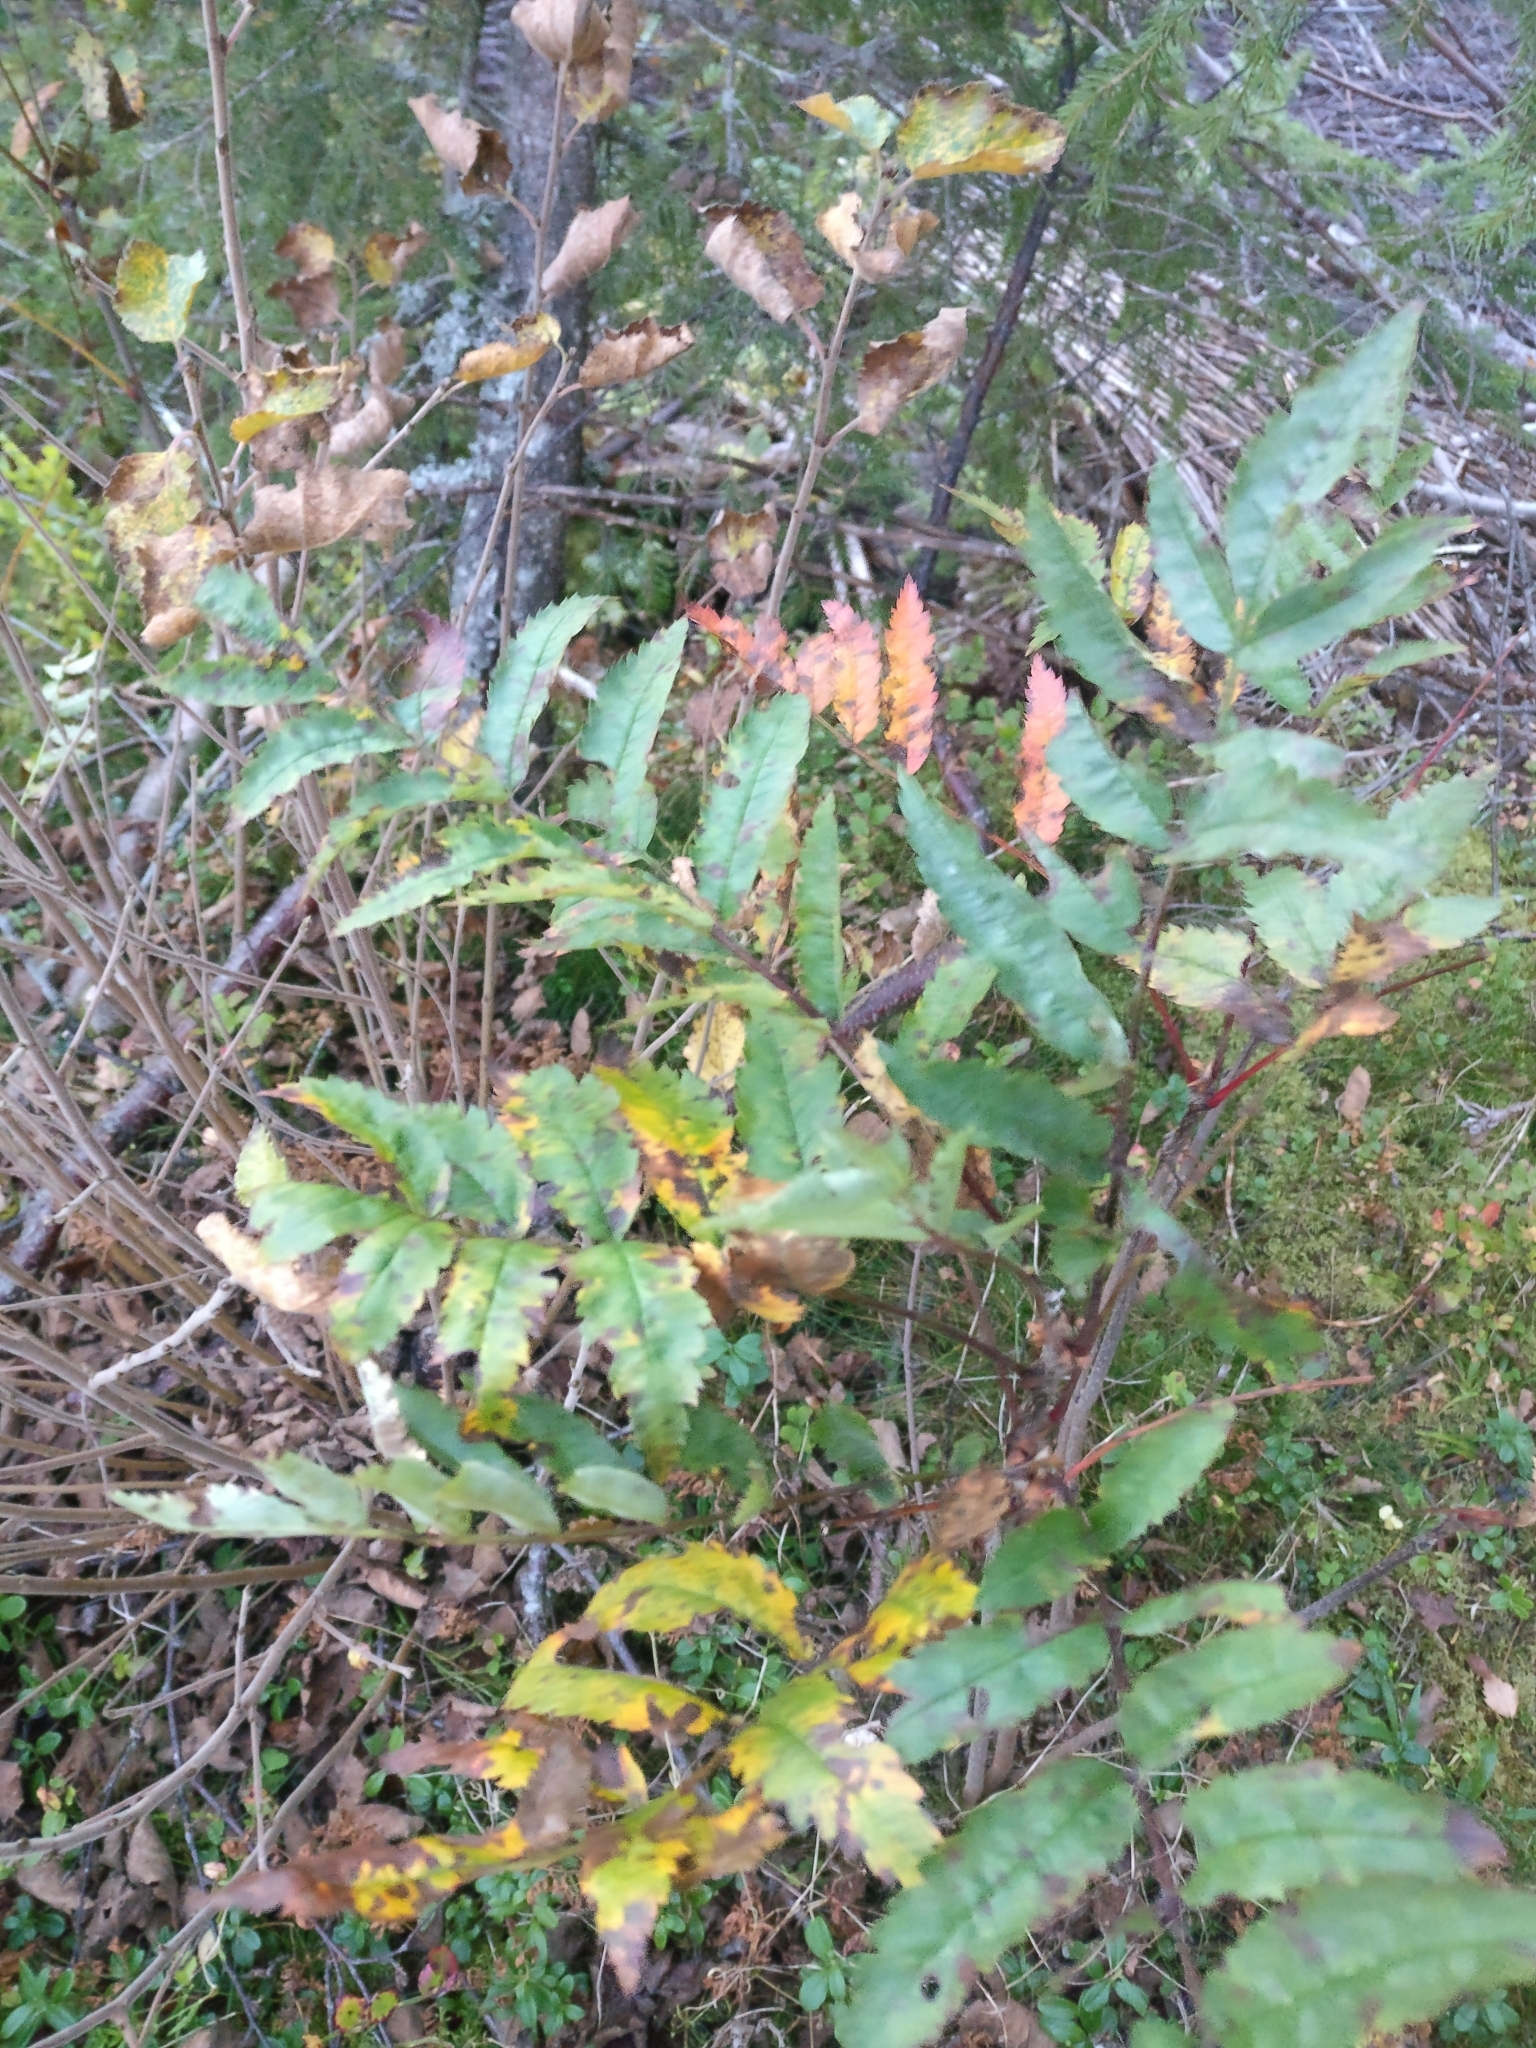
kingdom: Plantae
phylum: Tracheophyta
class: Magnoliopsida
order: Rosales
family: Rosaceae
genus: Sorbus
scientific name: Sorbus aucuparia
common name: Rowan
